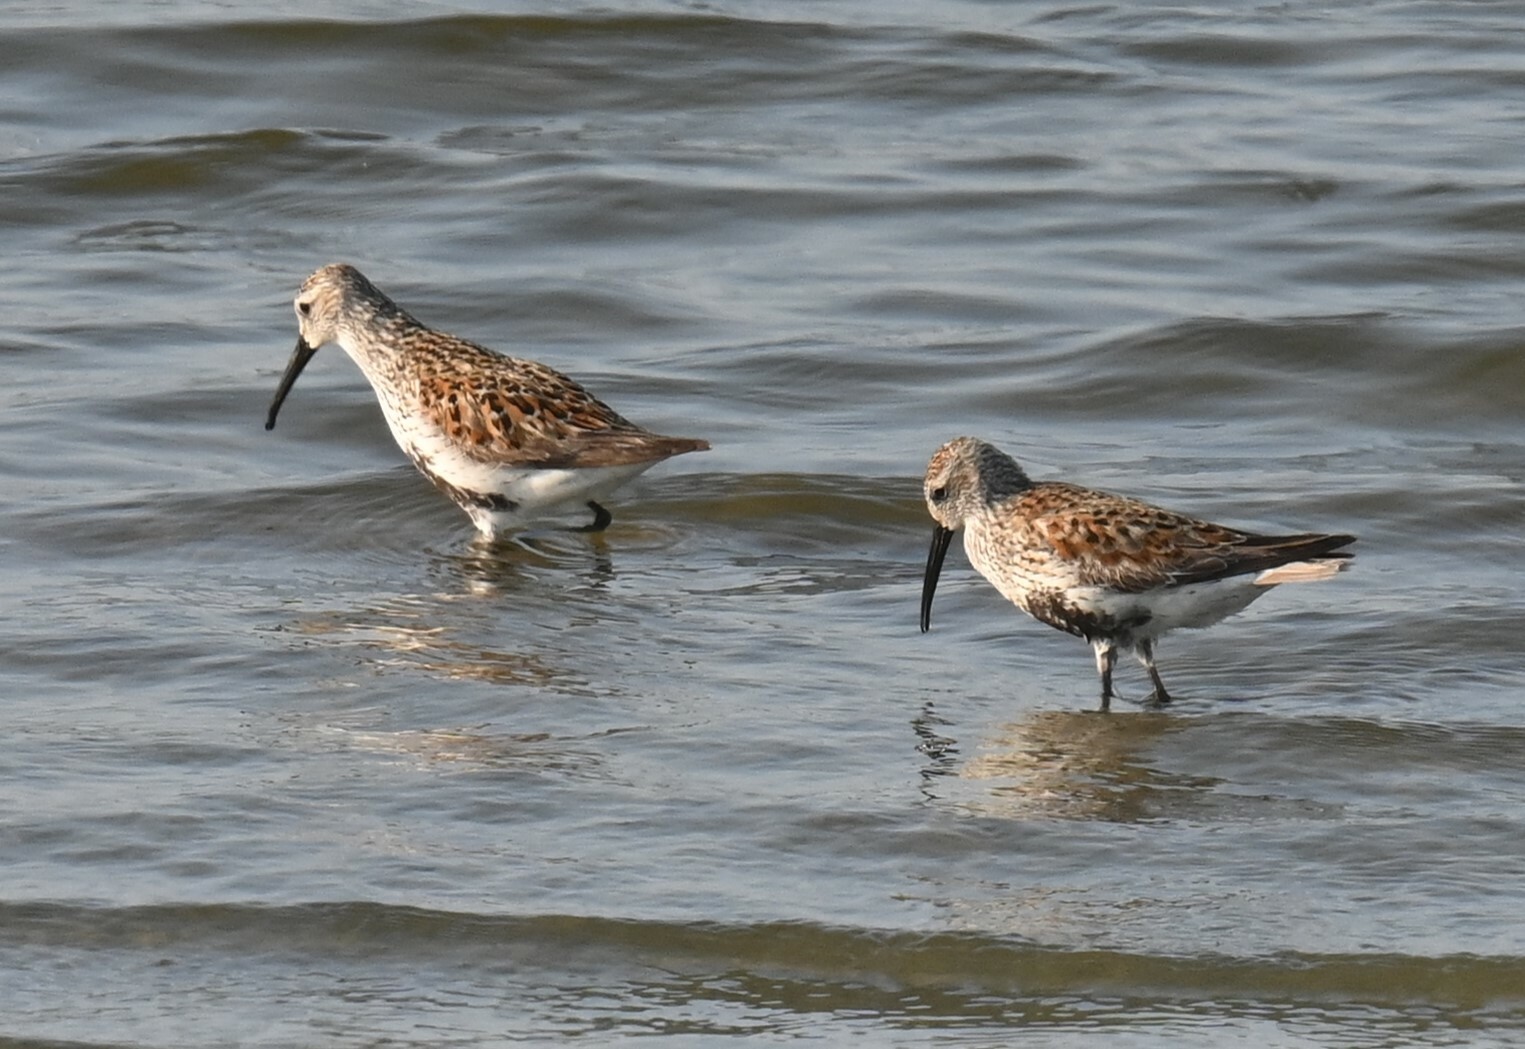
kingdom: Animalia
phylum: Chordata
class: Aves
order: Charadriiformes
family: Scolopacidae
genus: Calidris
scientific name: Calidris alpina
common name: Dunlin
